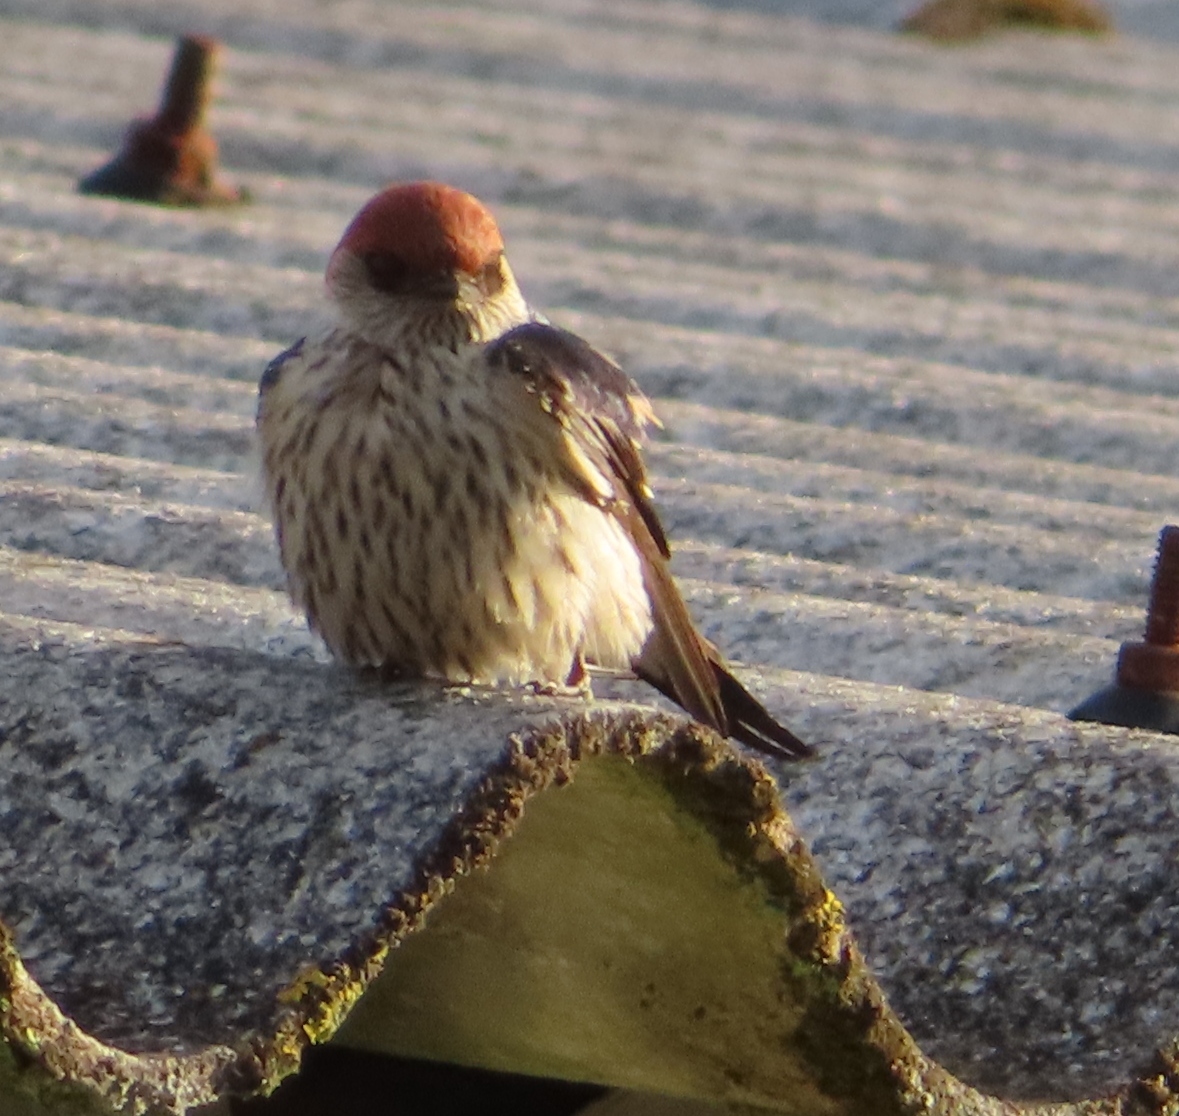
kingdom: Animalia
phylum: Chordata
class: Aves
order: Passeriformes
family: Hirundinidae
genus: Cecropis
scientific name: Cecropis cucullata
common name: Greater striped-swallow
